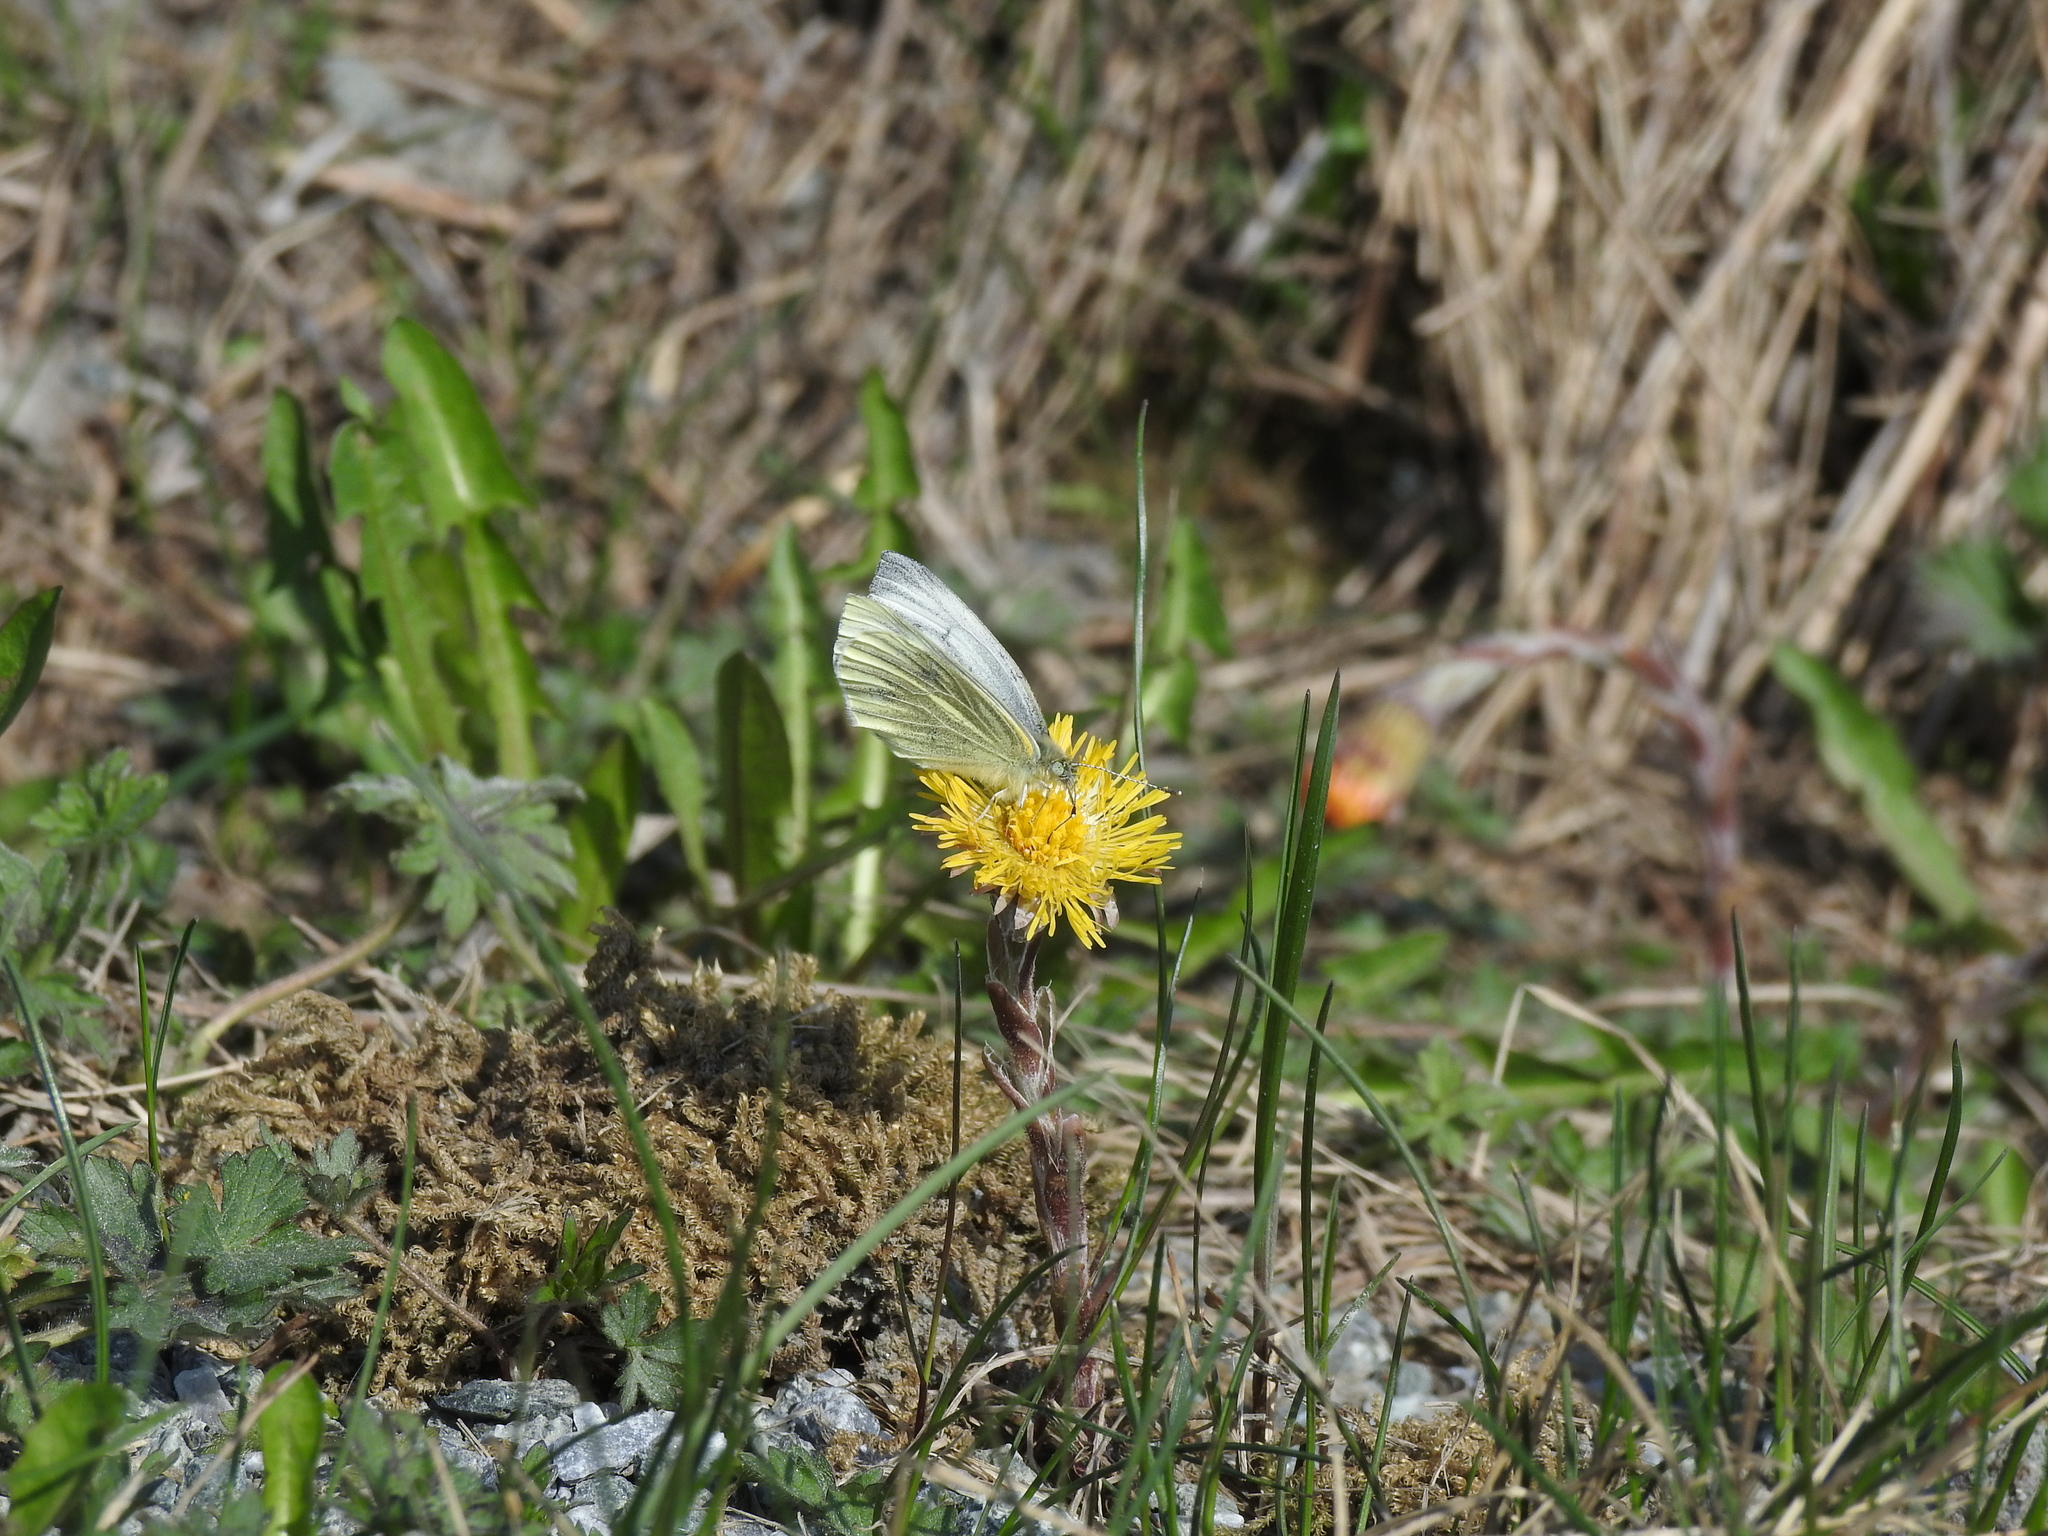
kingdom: Animalia
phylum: Arthropoda
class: Insecta
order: Lepidoptera
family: Pieridae
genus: Pieris
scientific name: Pieris napi
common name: Green-veined white
